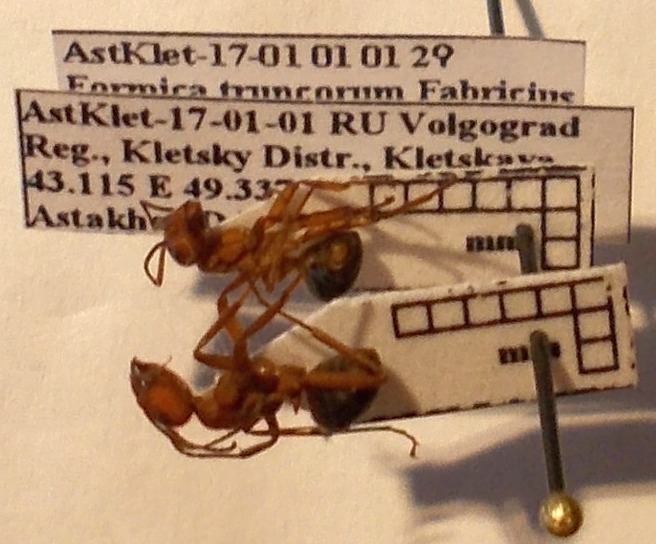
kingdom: Animalia
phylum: Arthropoda
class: Insecta
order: Hymenoptera
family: Formicidae
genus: Formica
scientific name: Formica truncorum
